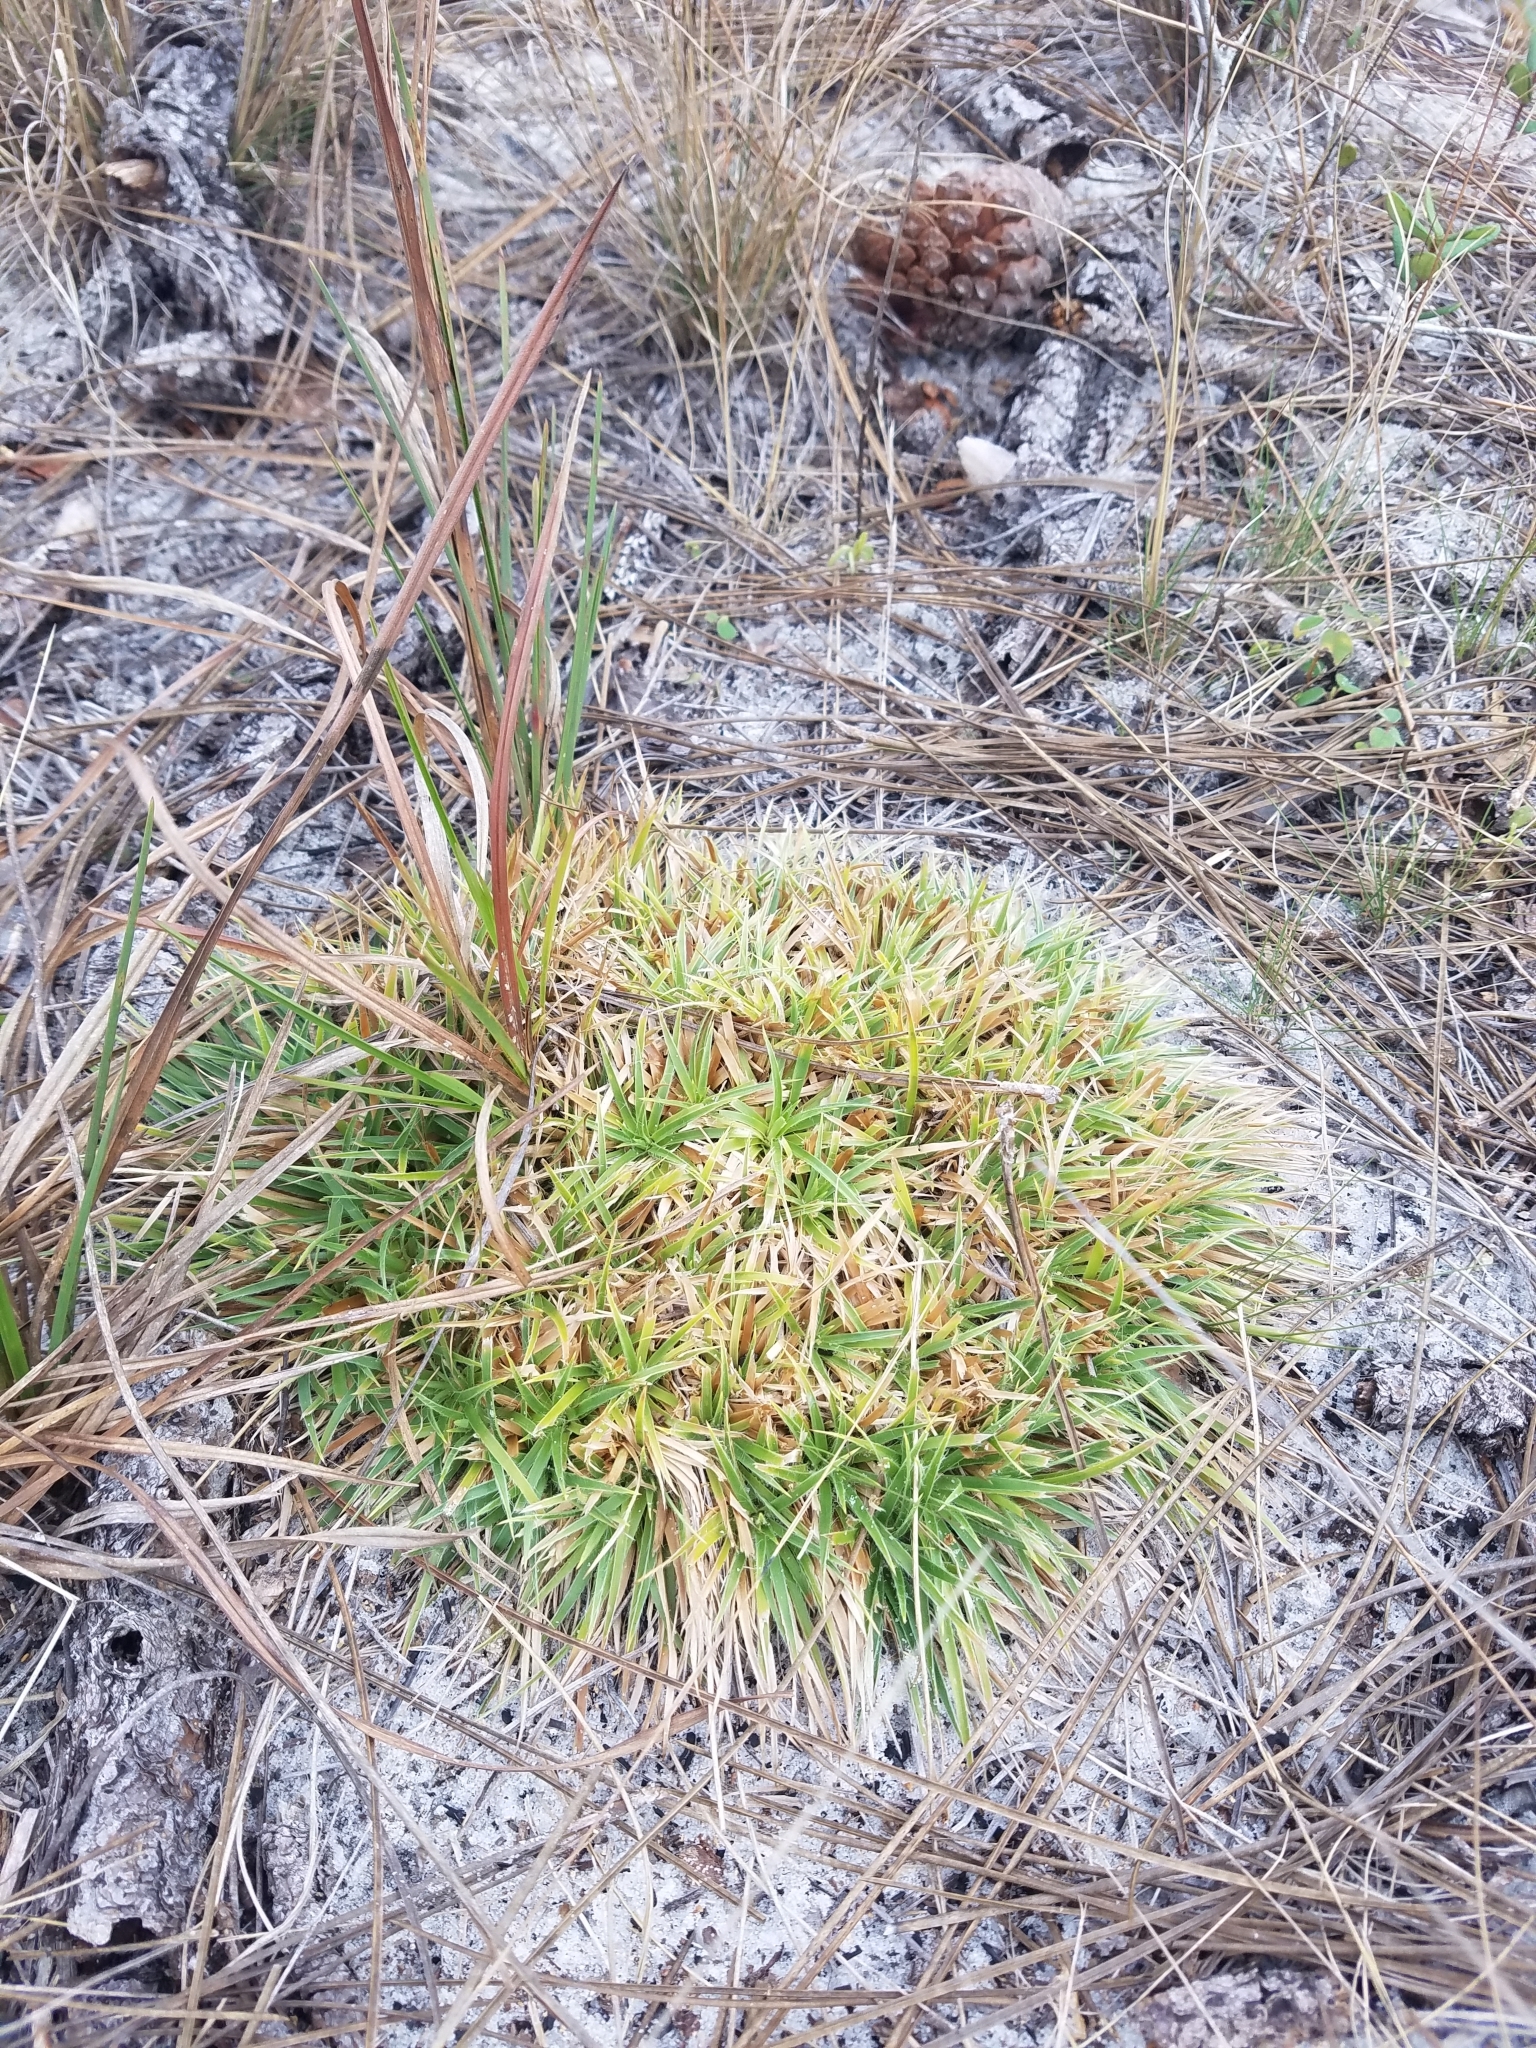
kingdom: Plantae
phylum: Tracheophyta
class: Liliopsida
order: Poales
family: Eriocaulaceae
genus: Paepalanthus
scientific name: Paepalanthus beyrichianus
